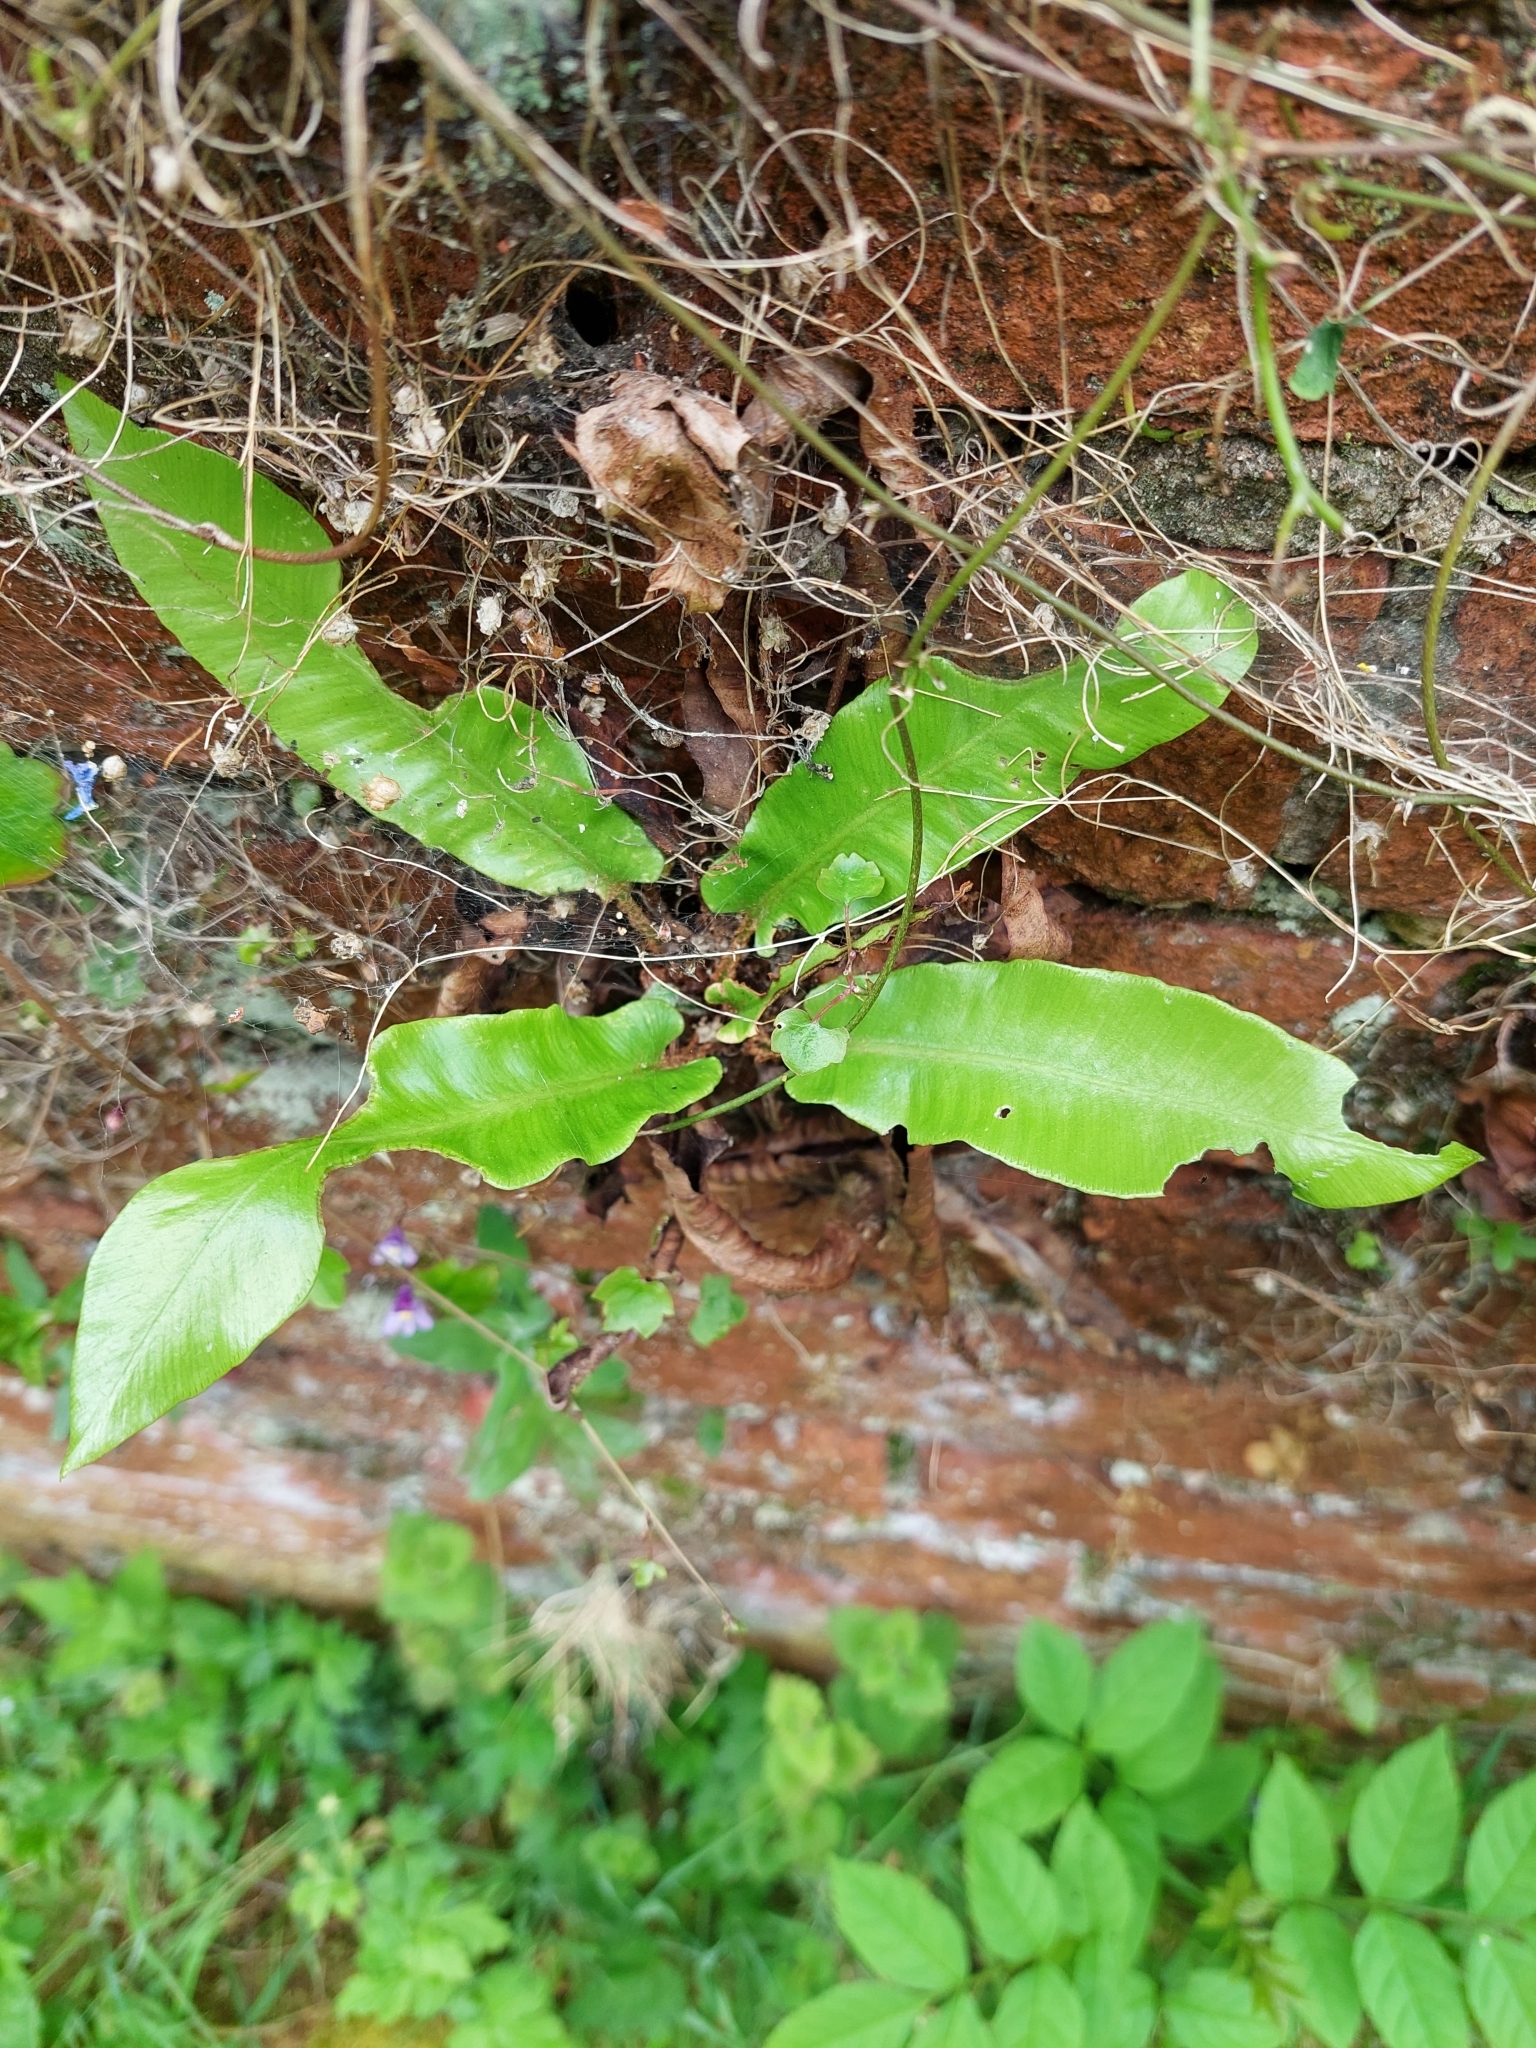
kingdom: Plantae
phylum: Tracheophyta
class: Polypodiopsida
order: Polypodiales
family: Aspleniaceae
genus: Asplenium
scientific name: Asplenium scolopendrium
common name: Hart's-tongue fern
